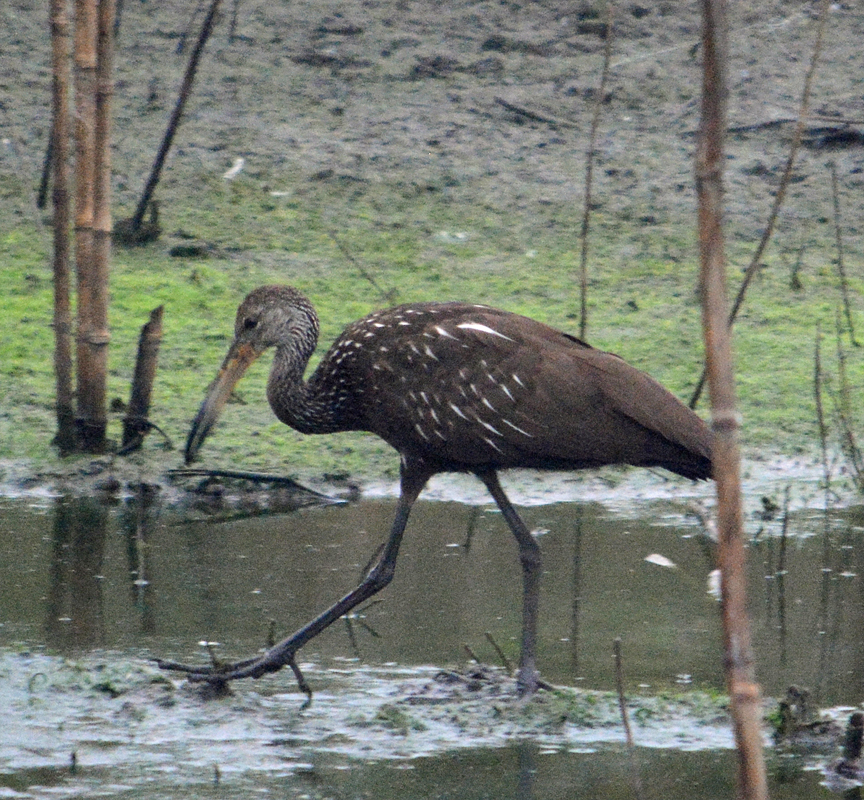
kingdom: Animalia
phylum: Chordata
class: Aves
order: Gruiformes
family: Aramidae
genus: Aramus
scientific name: Aramus guarauna
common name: Limpkin
